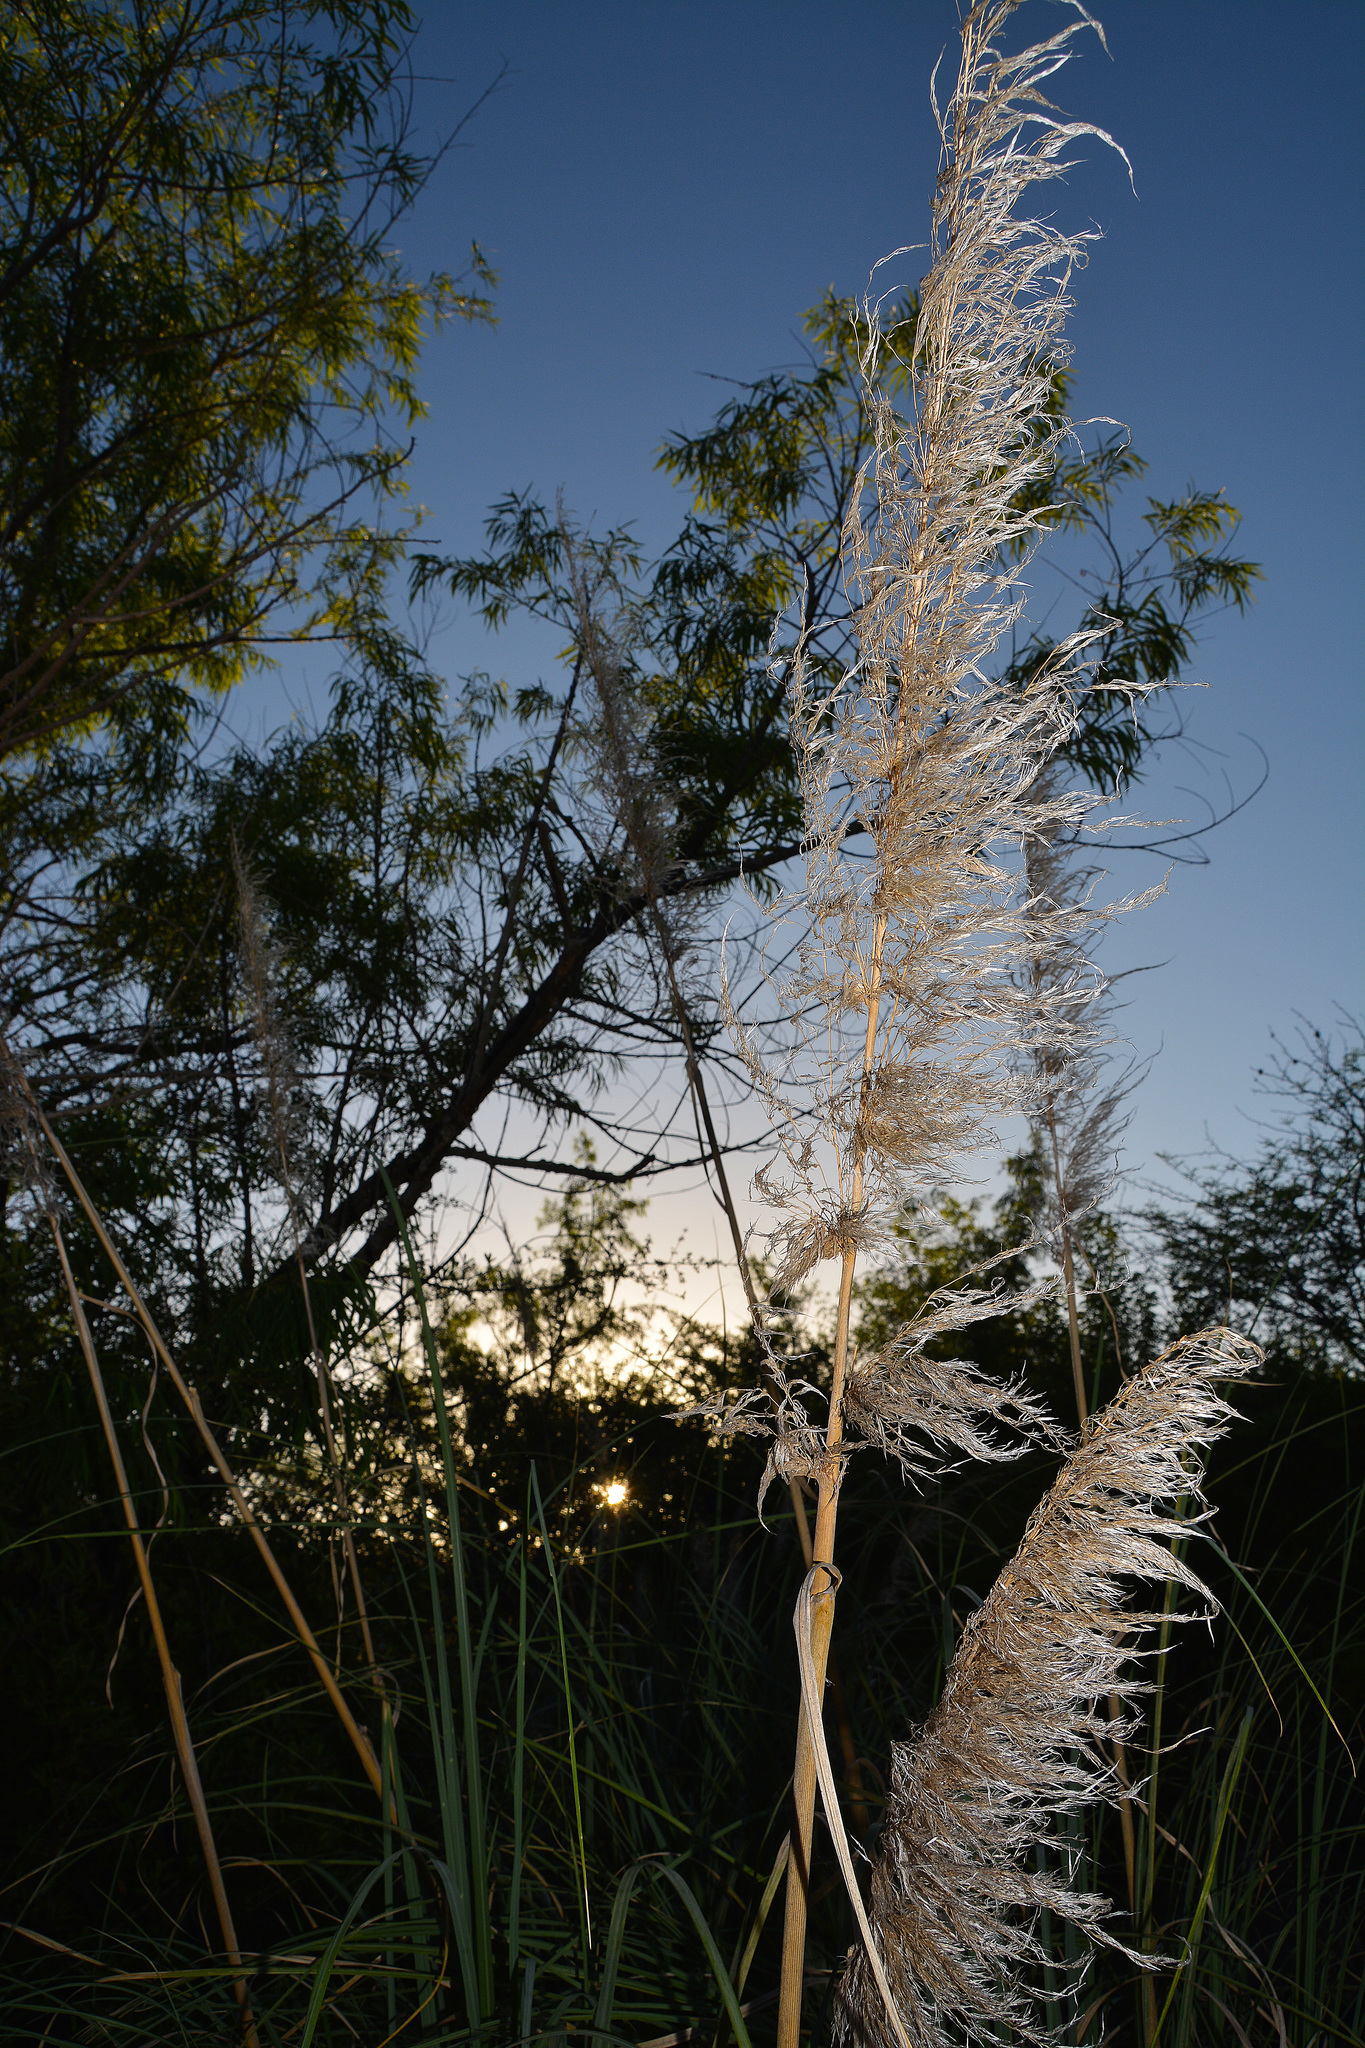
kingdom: Plantae
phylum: Tracheophyta
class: Liliopsida
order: Poales
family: Poaceae
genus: Cortaderia
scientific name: Cortaderia selloana
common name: Uruguayan pampas grass
